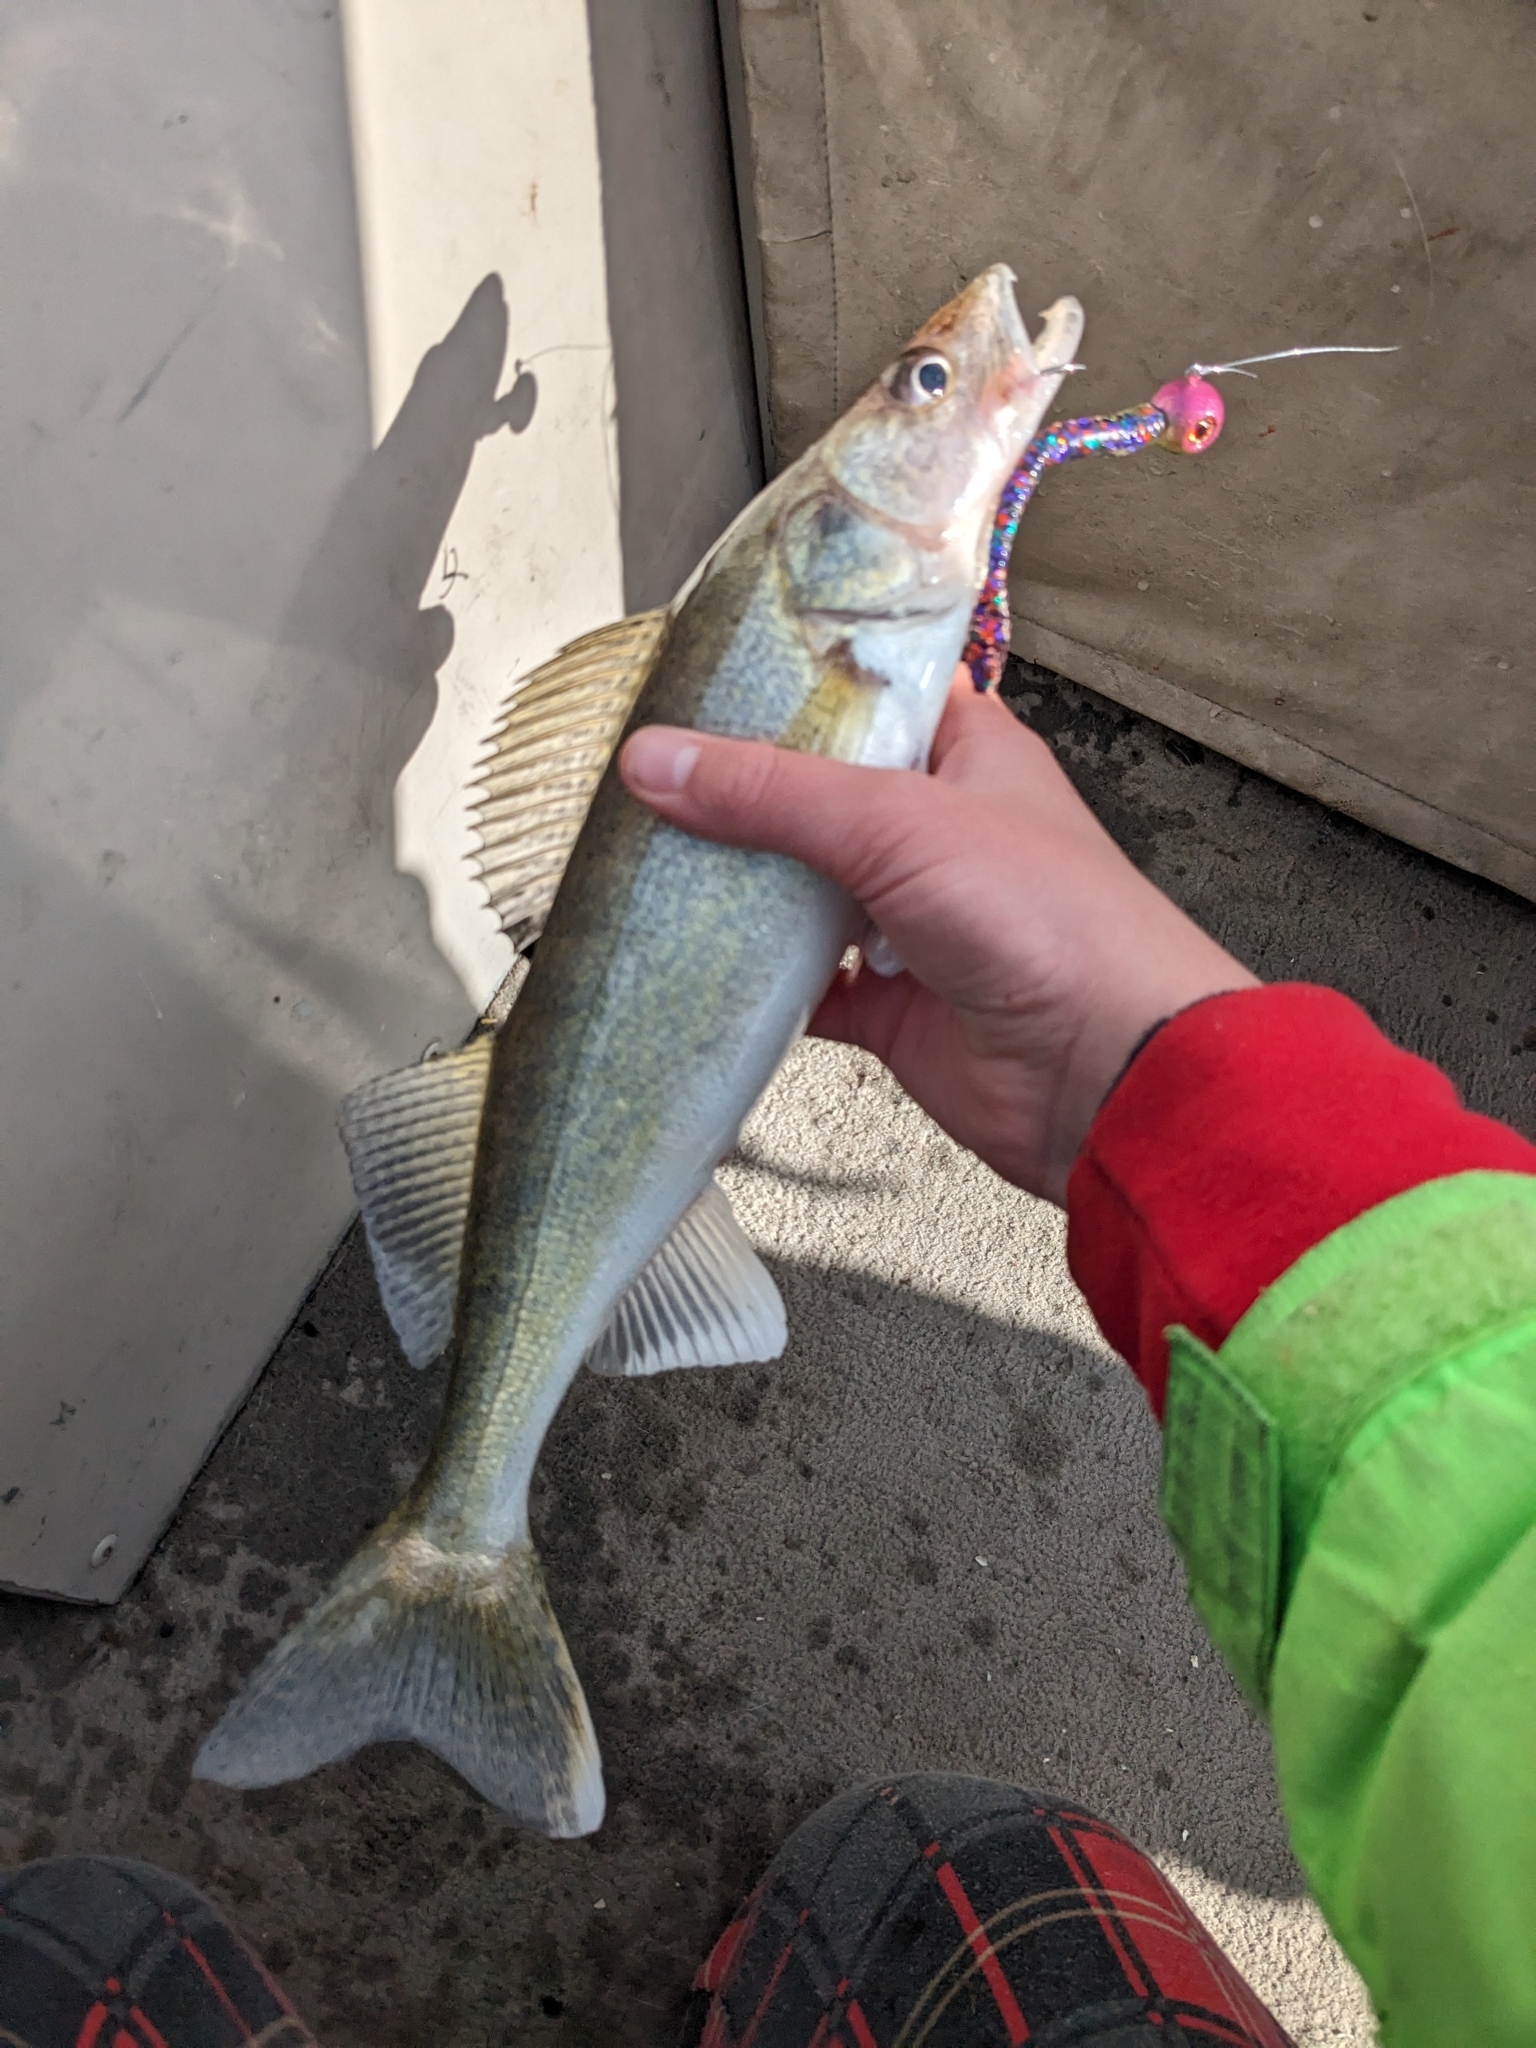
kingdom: Animalia
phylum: Chordata
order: Perciformes
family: Percidae
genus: Sander
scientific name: Sander vitreus
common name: Walleye
